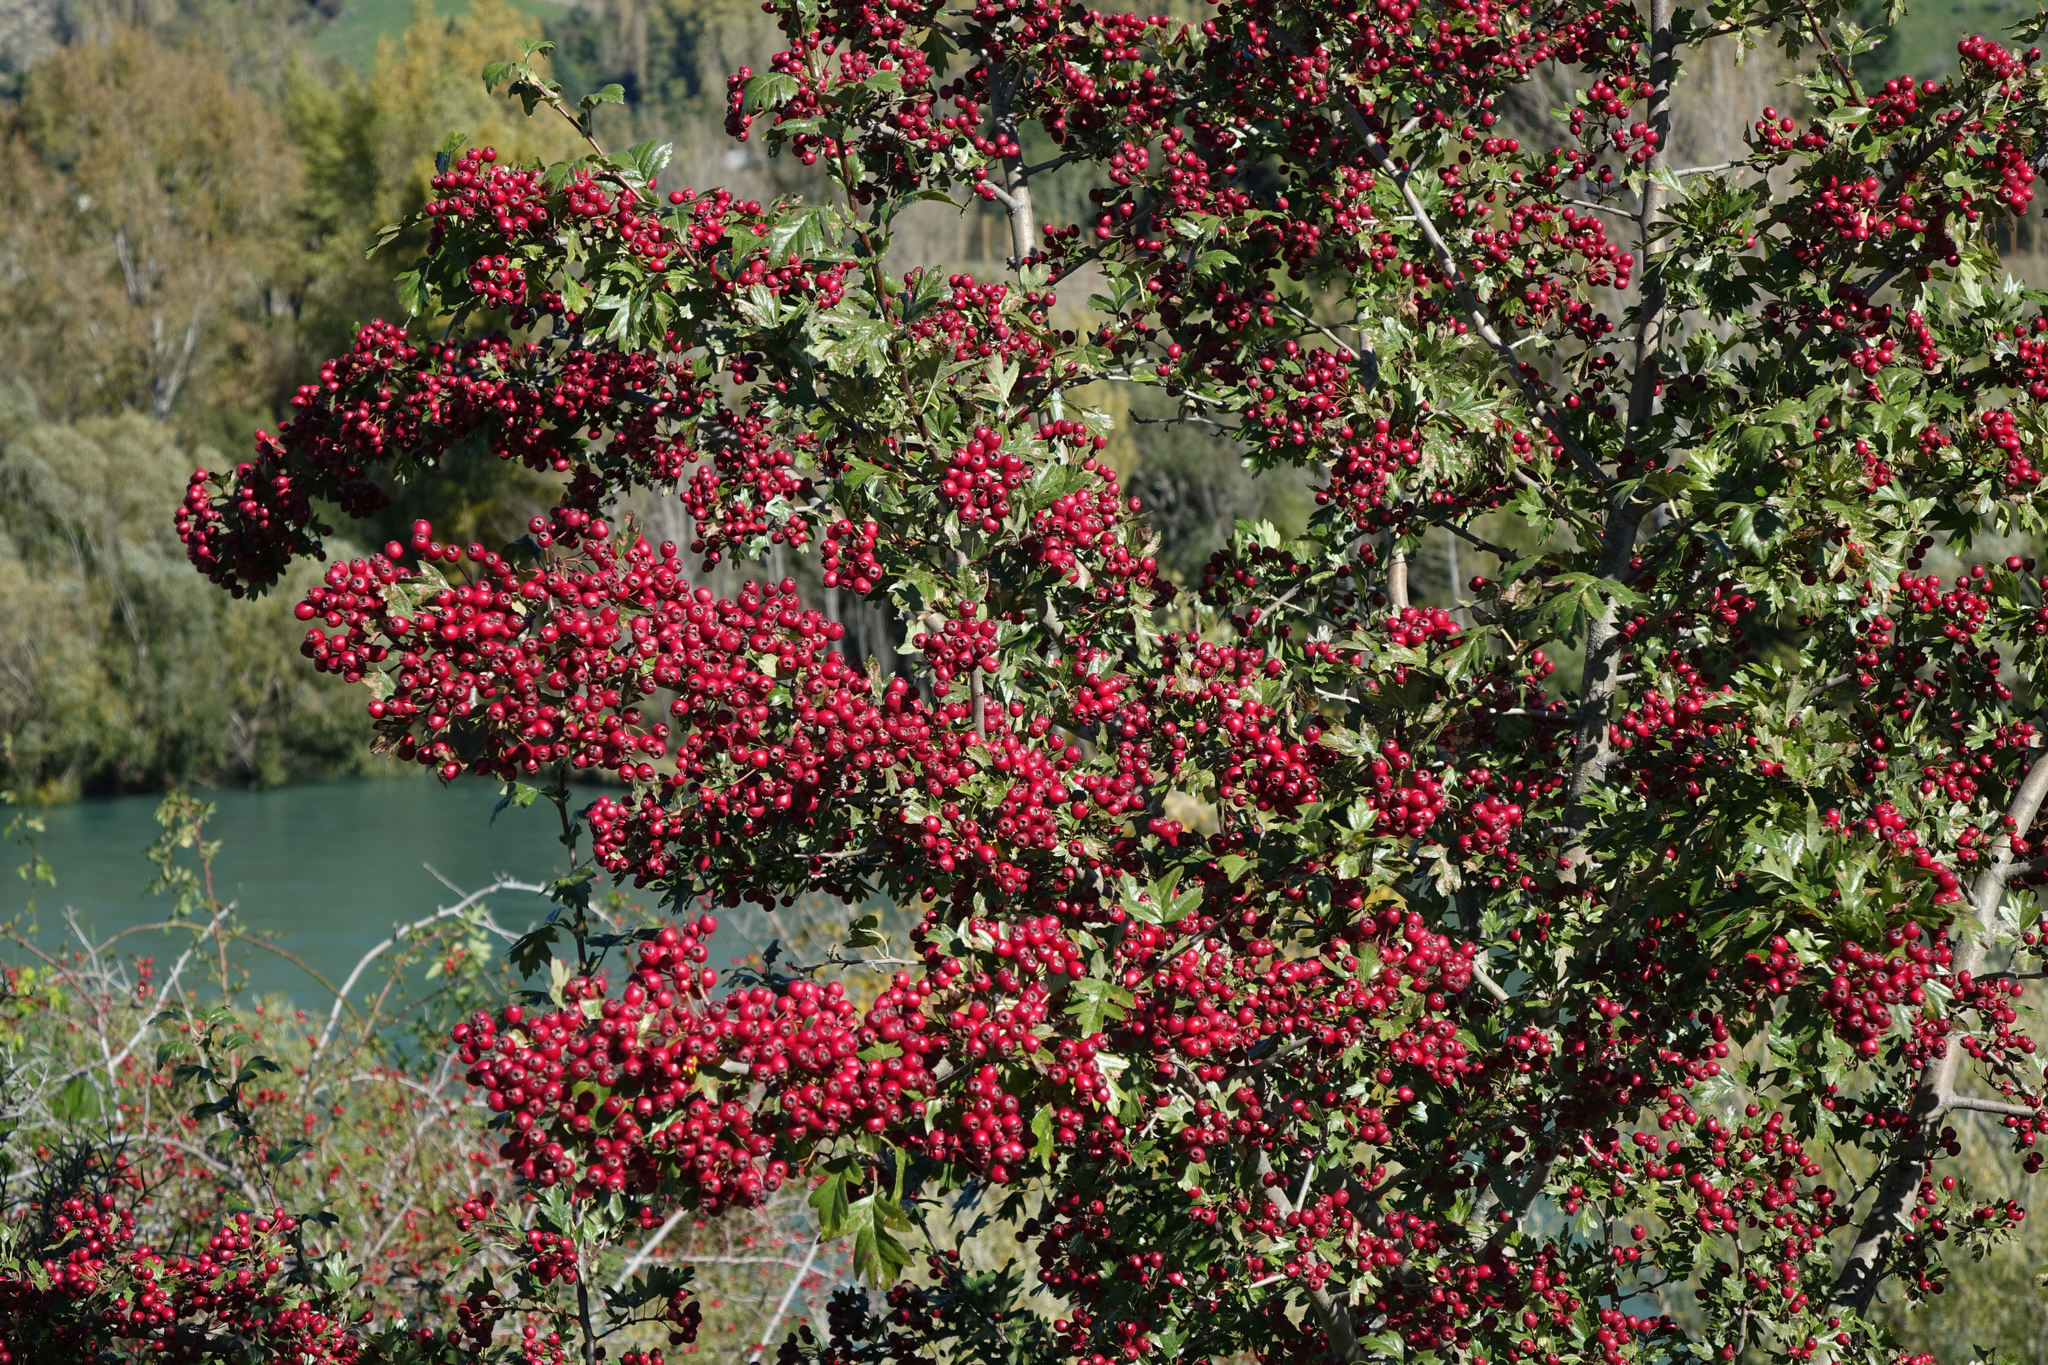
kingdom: Plantae
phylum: Tracheophyta
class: Magnoliopsida
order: Rosales
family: Rosaceae
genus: Crataegus
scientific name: Crataegus monogyna
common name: Hawthorn
